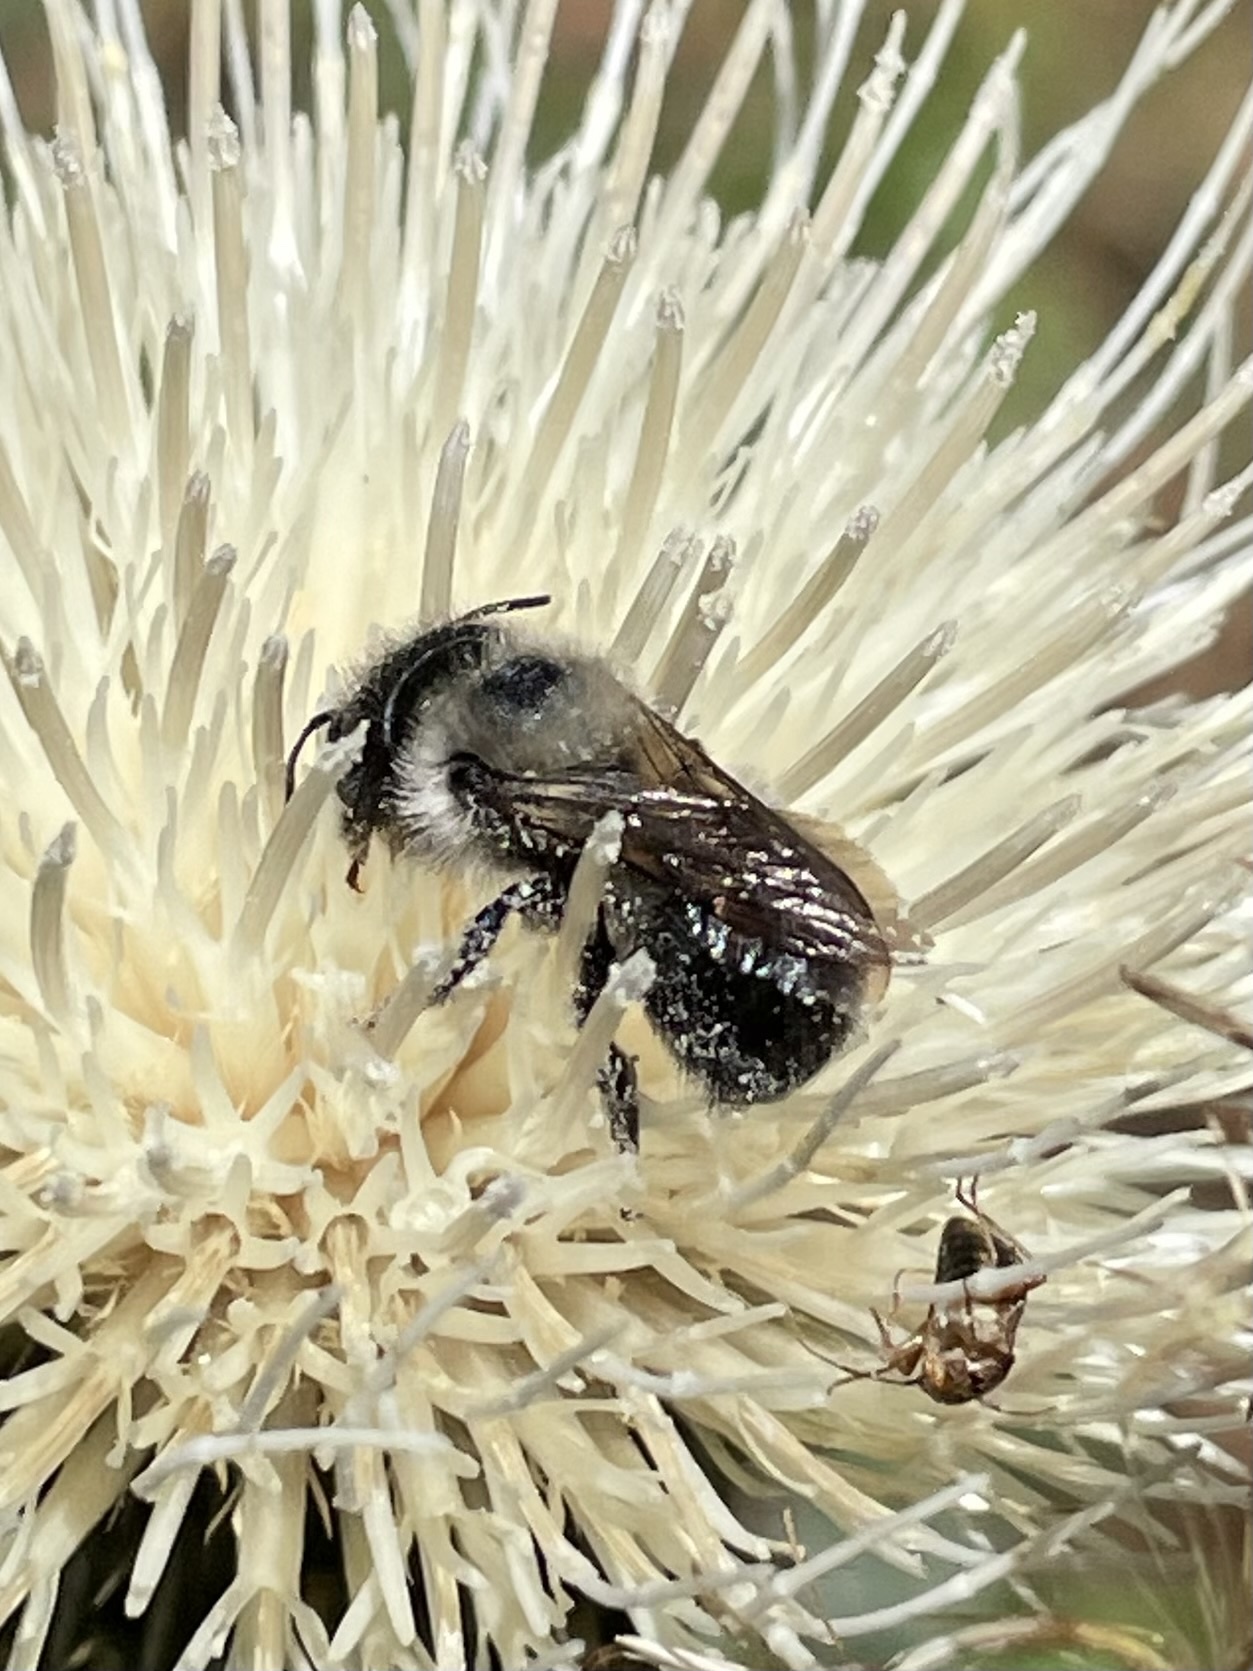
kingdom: Animalia
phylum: Arthropoda
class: Insecta
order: Hymenoptera
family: Megachilidae
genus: Osmia
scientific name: Osmia bucephala
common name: Bufflehead mason bee
